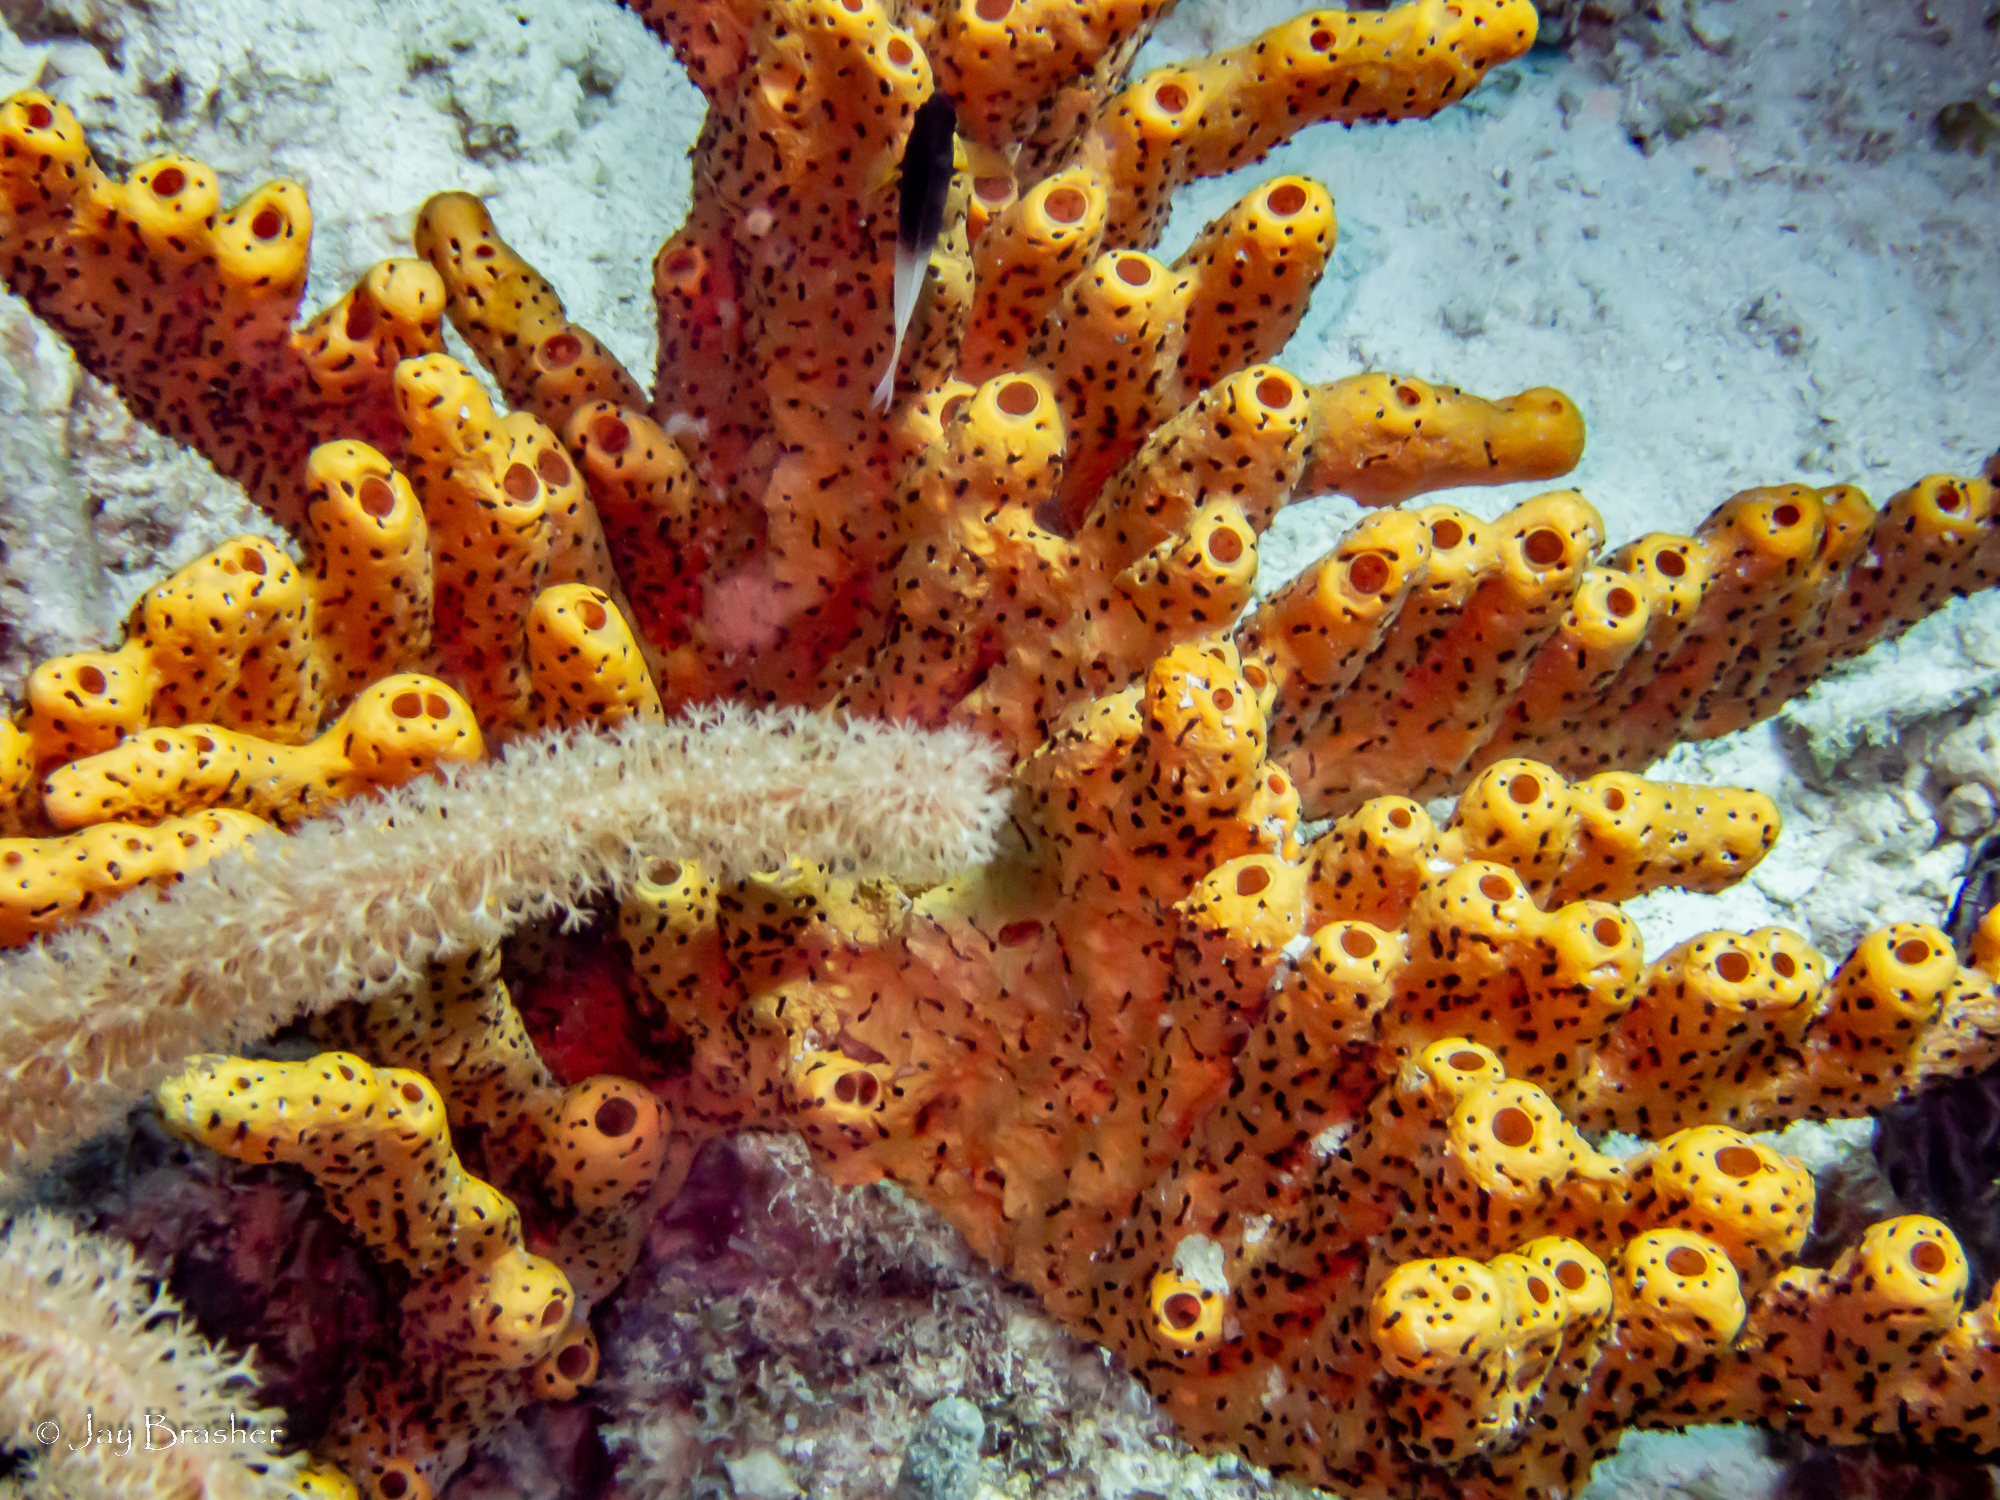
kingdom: Animalia
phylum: Porifera
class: Demospongiae
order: Agelasida
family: Agelasidae
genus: Agelas
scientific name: Agelas conifera
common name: Brown tube sponge
